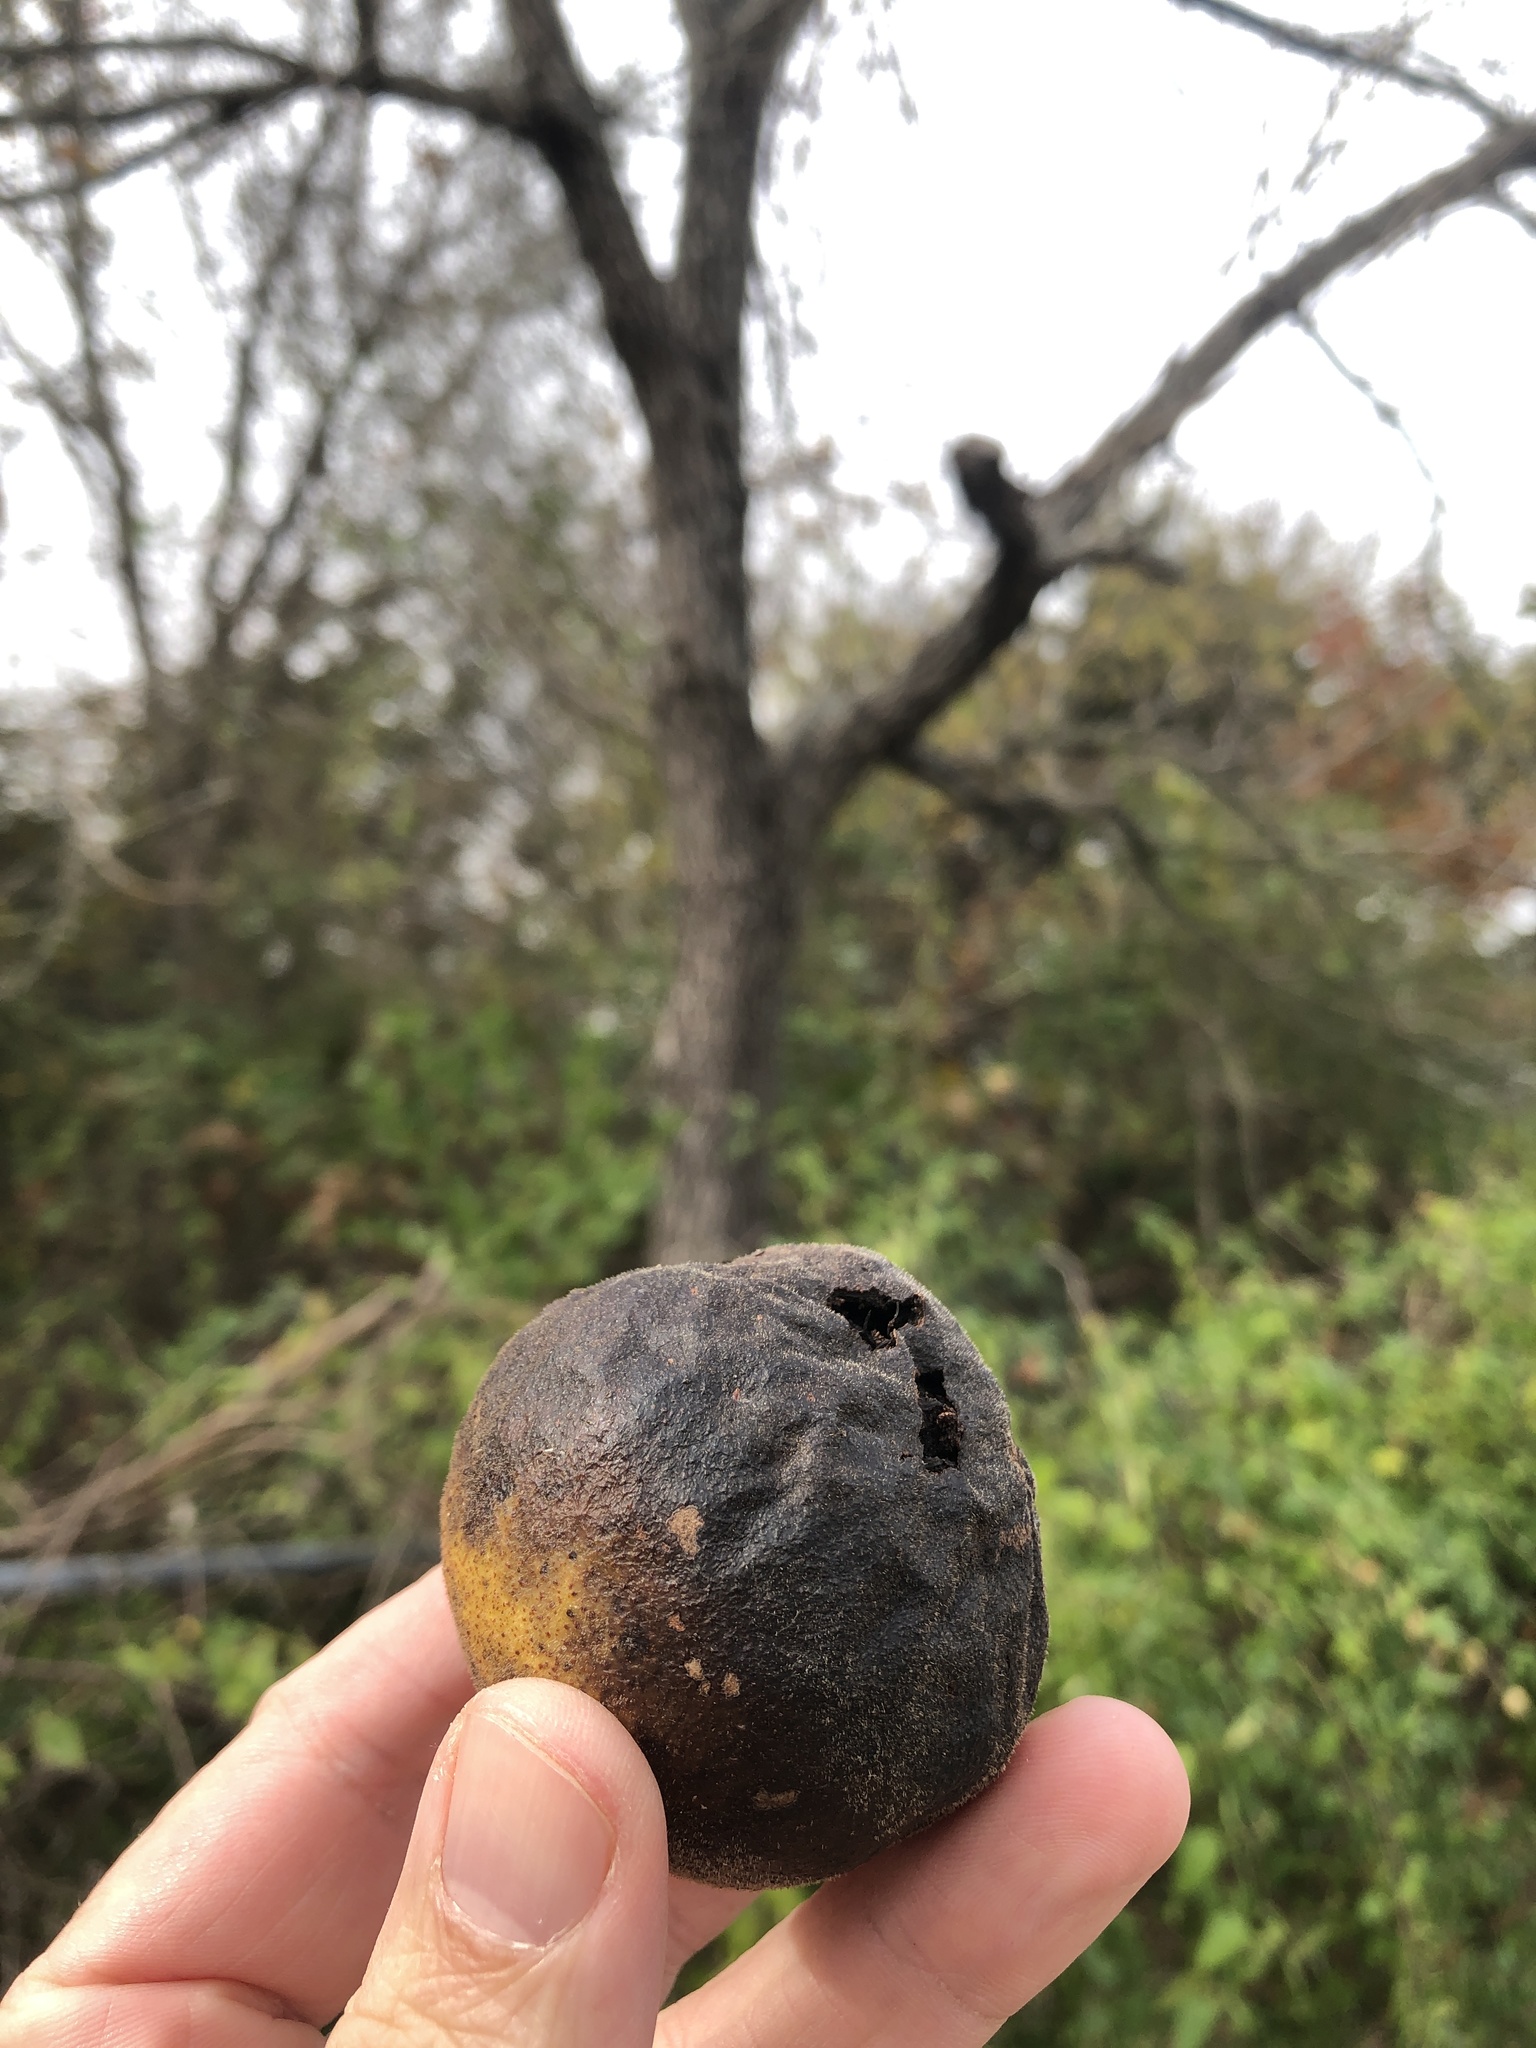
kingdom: Plantae
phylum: Tracheophyta
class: Magnoliopsida
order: Fagales
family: Juglandaceae
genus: Juglans
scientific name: Juglans nigra
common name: Black walnut
